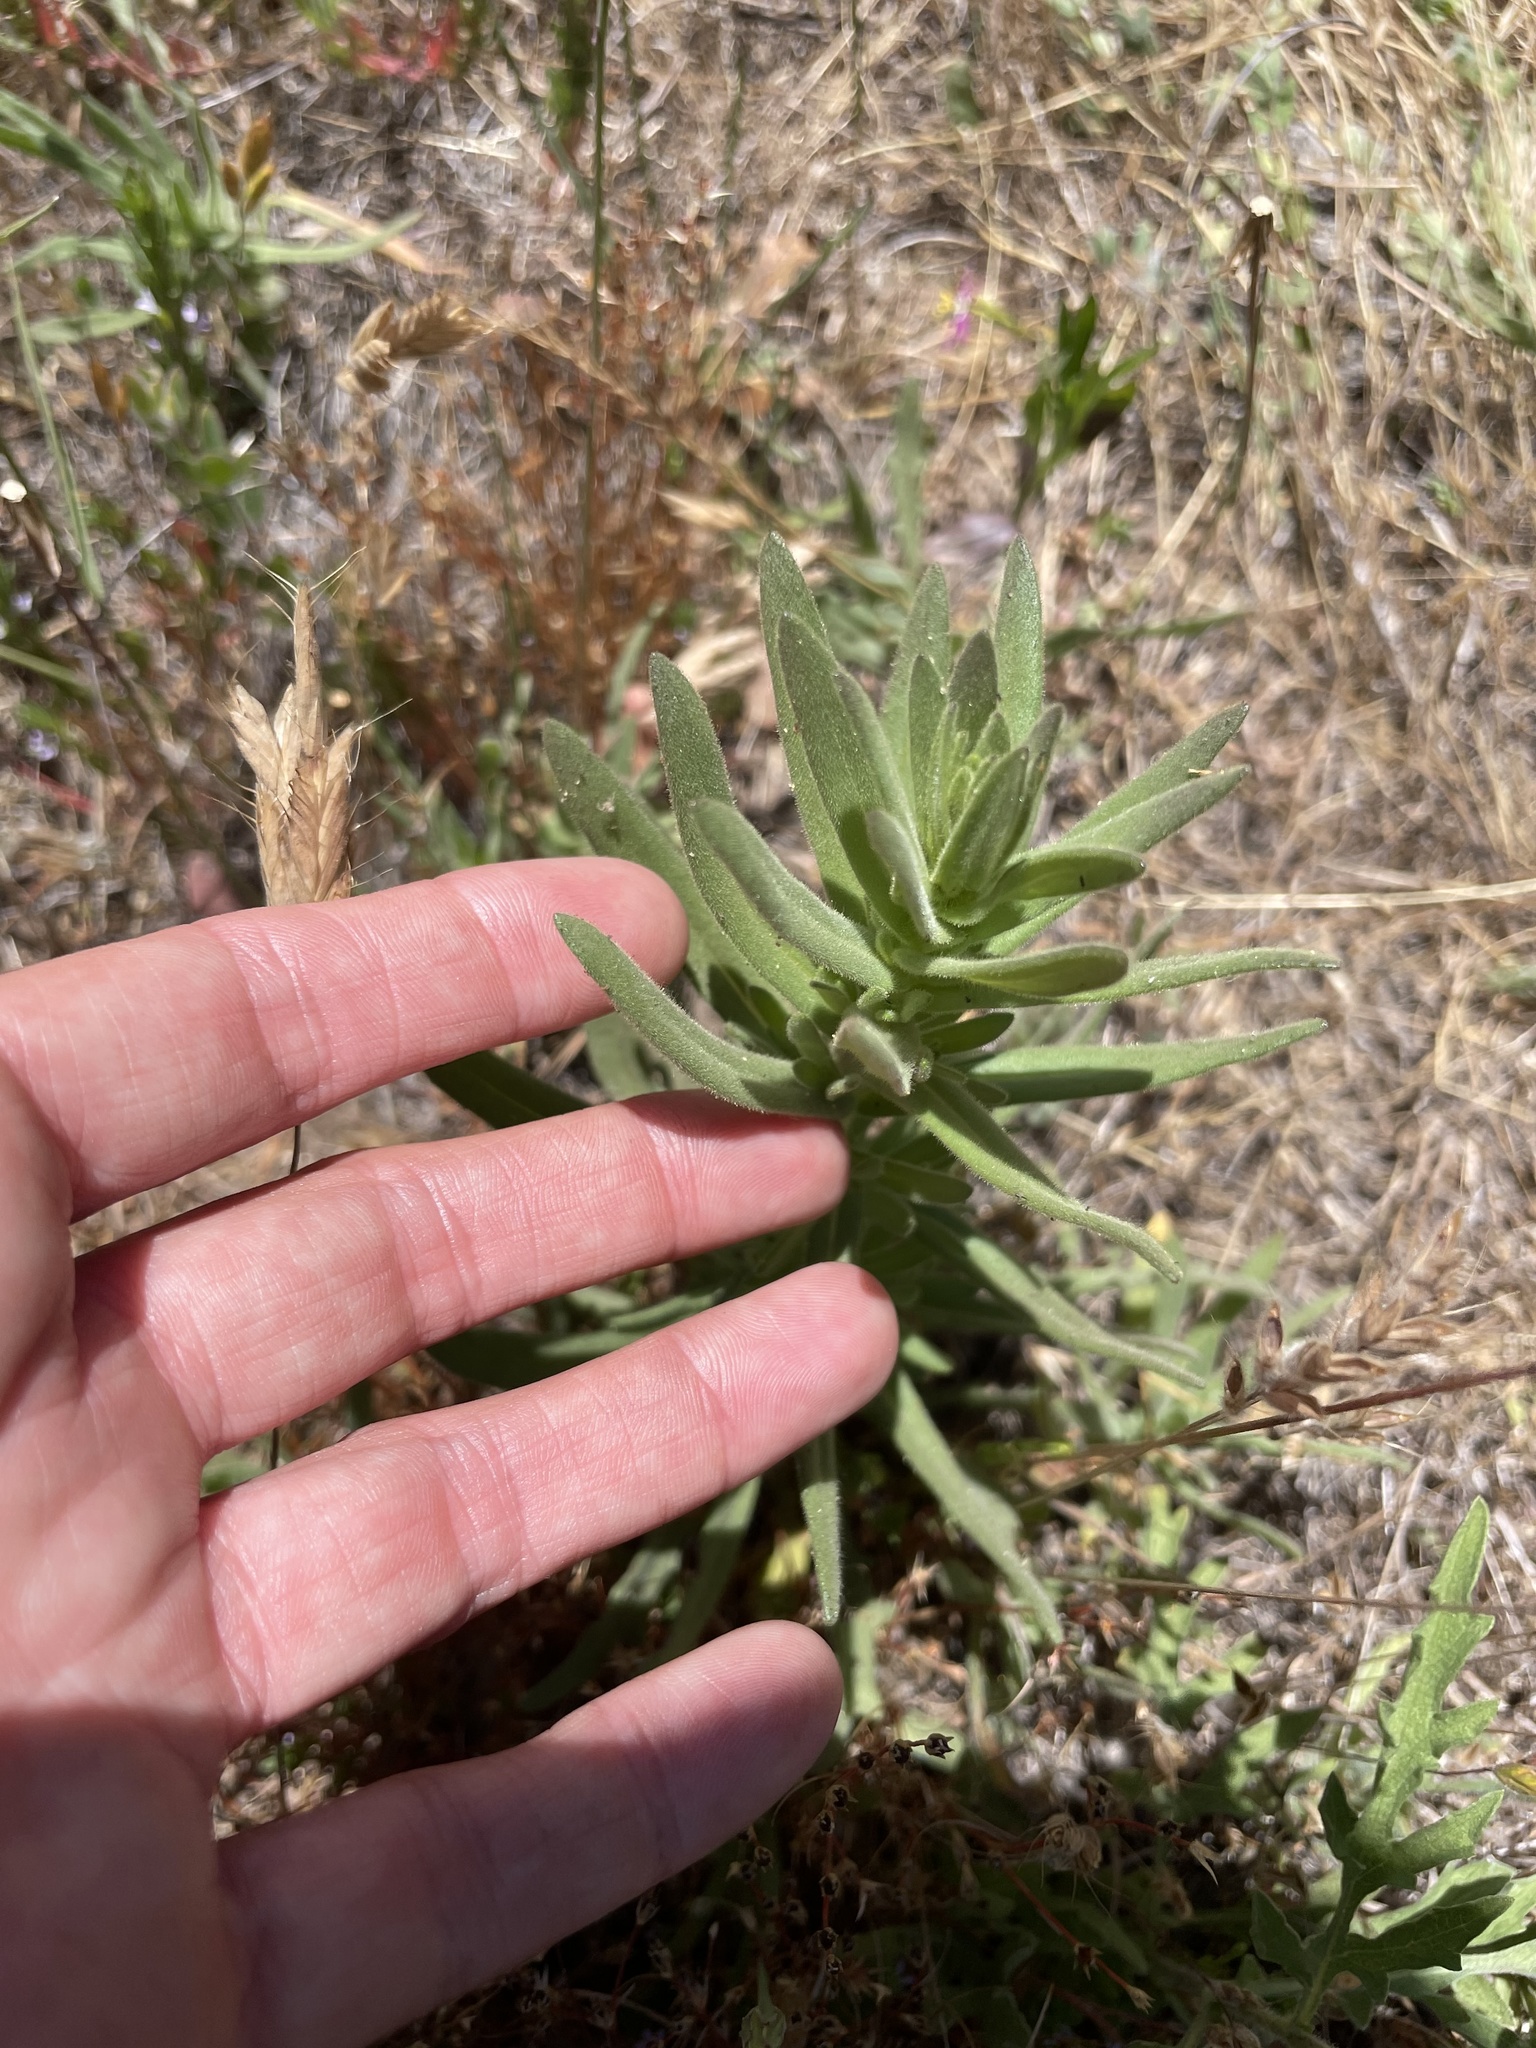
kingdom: Plantae
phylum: Tracheophyta
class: Magnoliopsida
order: Asterales
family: Asteraceae
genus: Deinandra
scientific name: Deinandra floribunda
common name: Tecate tarweed
